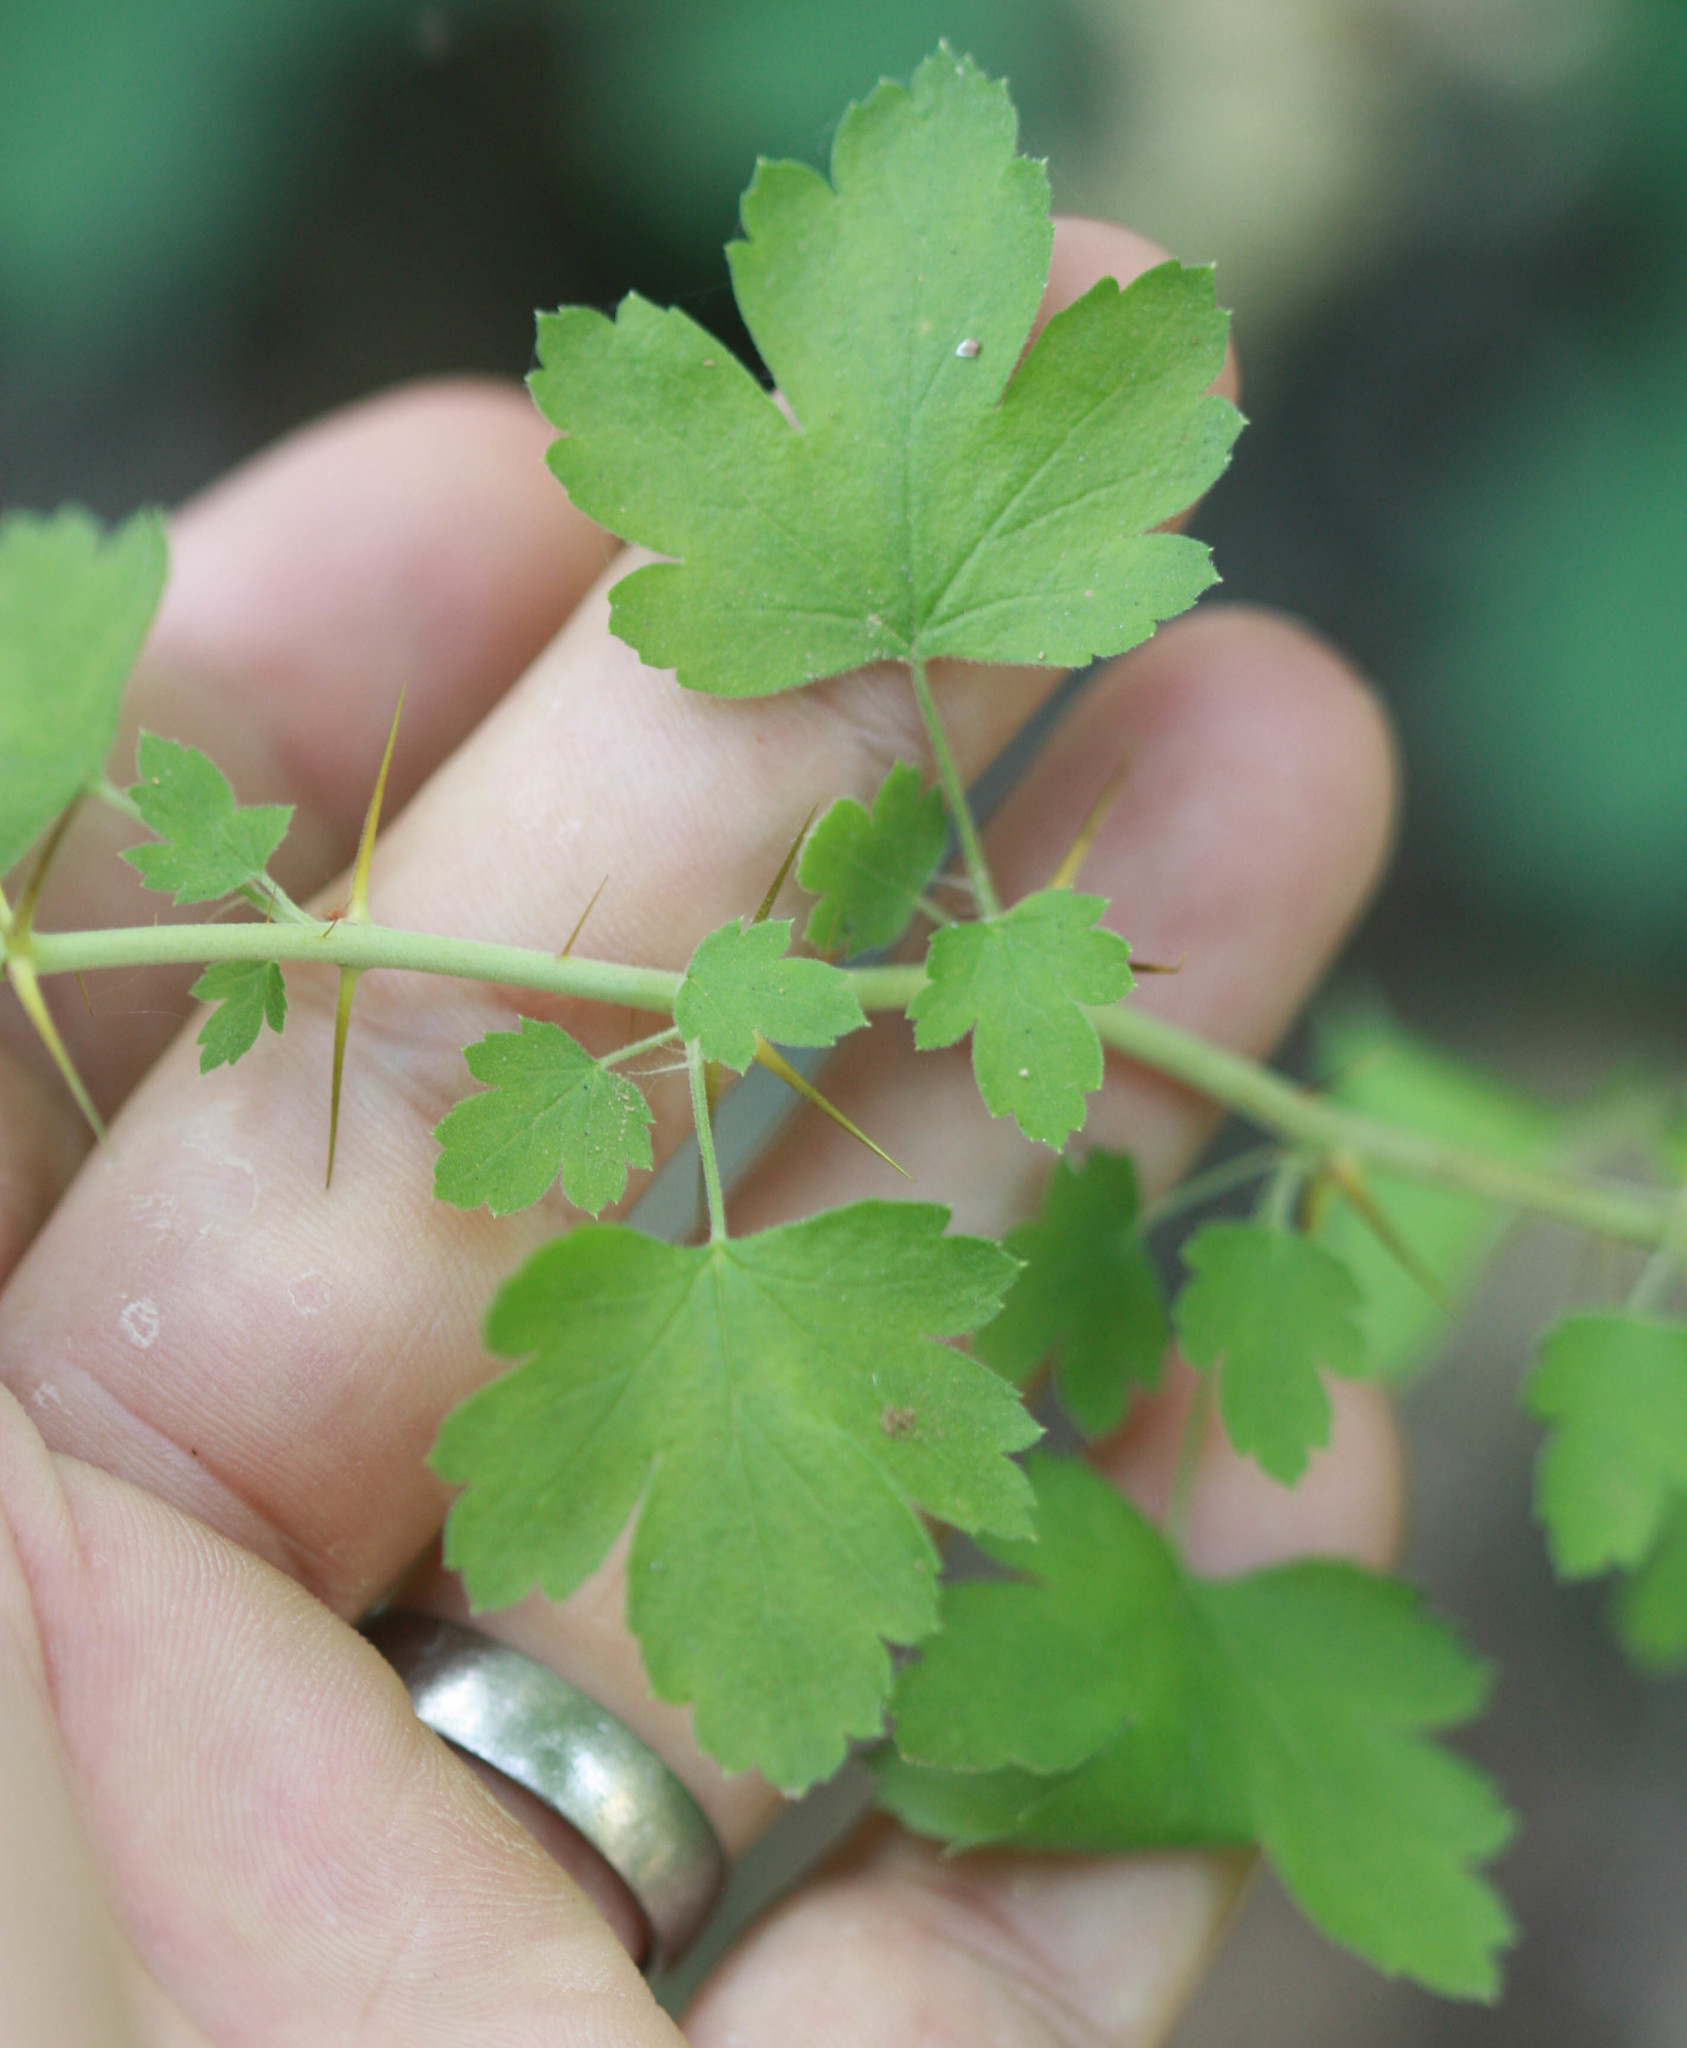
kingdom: Plantae
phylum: Tracheophyta
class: Magnoliopsida
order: Saxifragales
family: Grossulariaceae
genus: Ribes
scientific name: Ribes californicum
